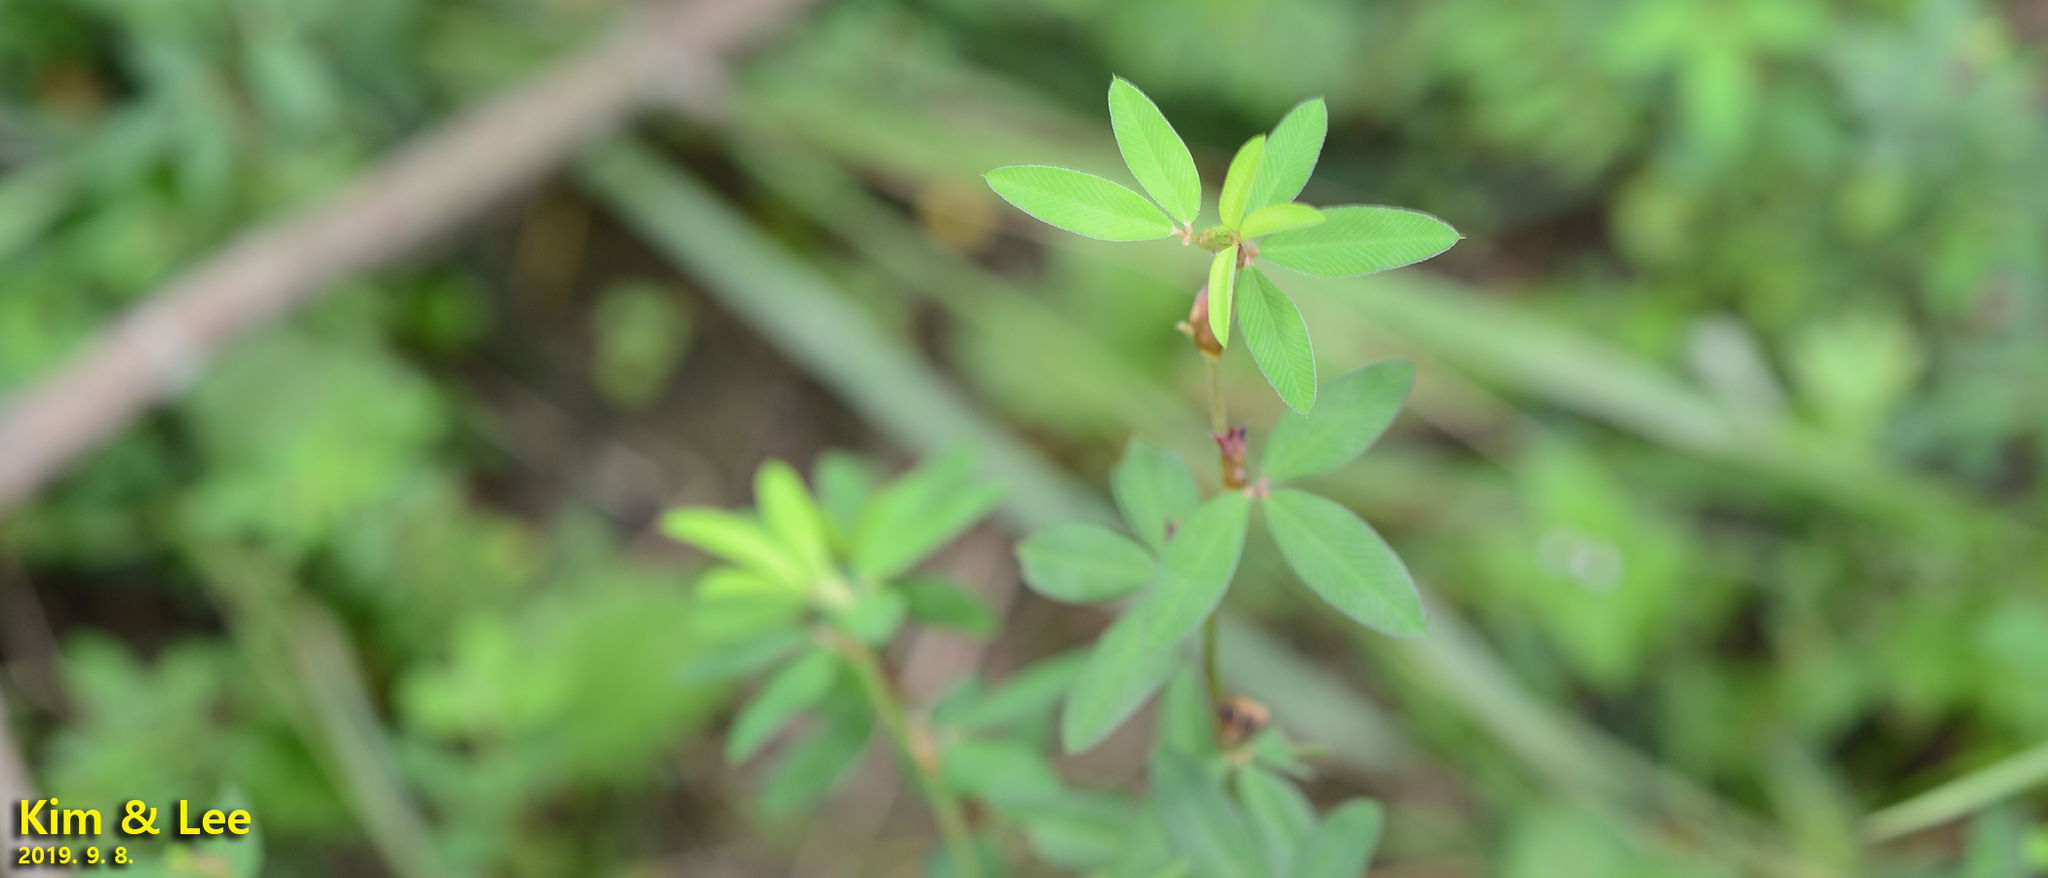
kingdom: Plantae
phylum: Tracheophyta
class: Magnoliopsida
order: Fabales
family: Fabaceae
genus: Kummerowia
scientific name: Kummerowia striata
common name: Japanese clover
